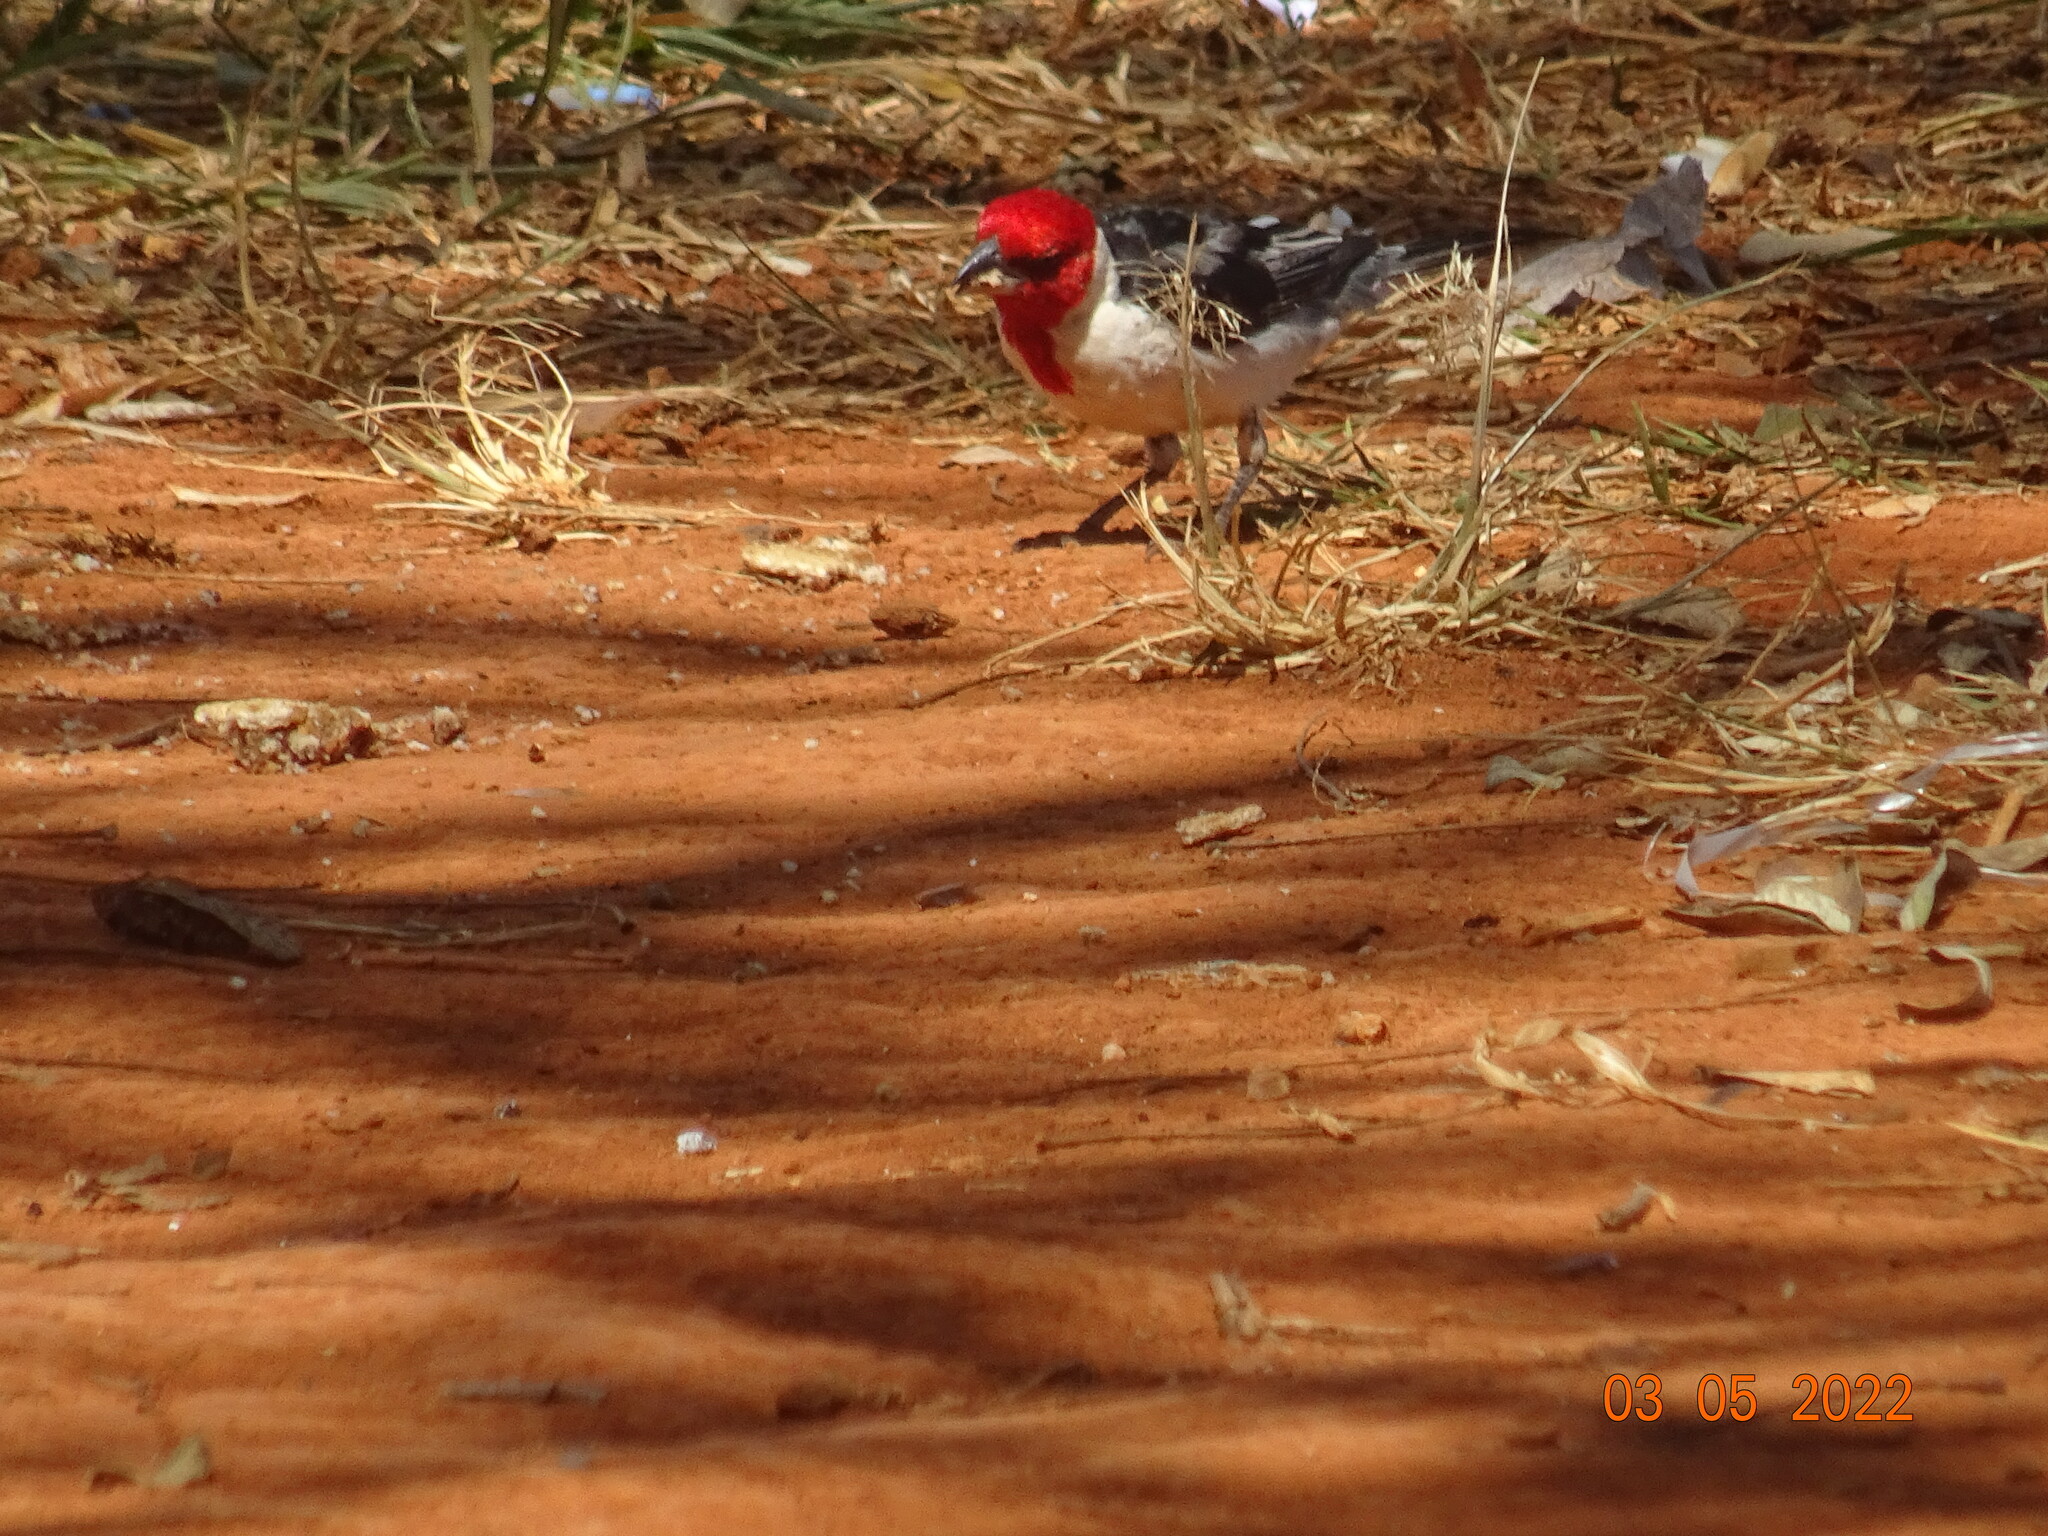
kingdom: Animalia
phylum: Chordata
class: Aves
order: Passeriformes
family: Thraupidae
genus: Paroaria
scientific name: Paroaria dominicana
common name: Red-cowled cardinal
